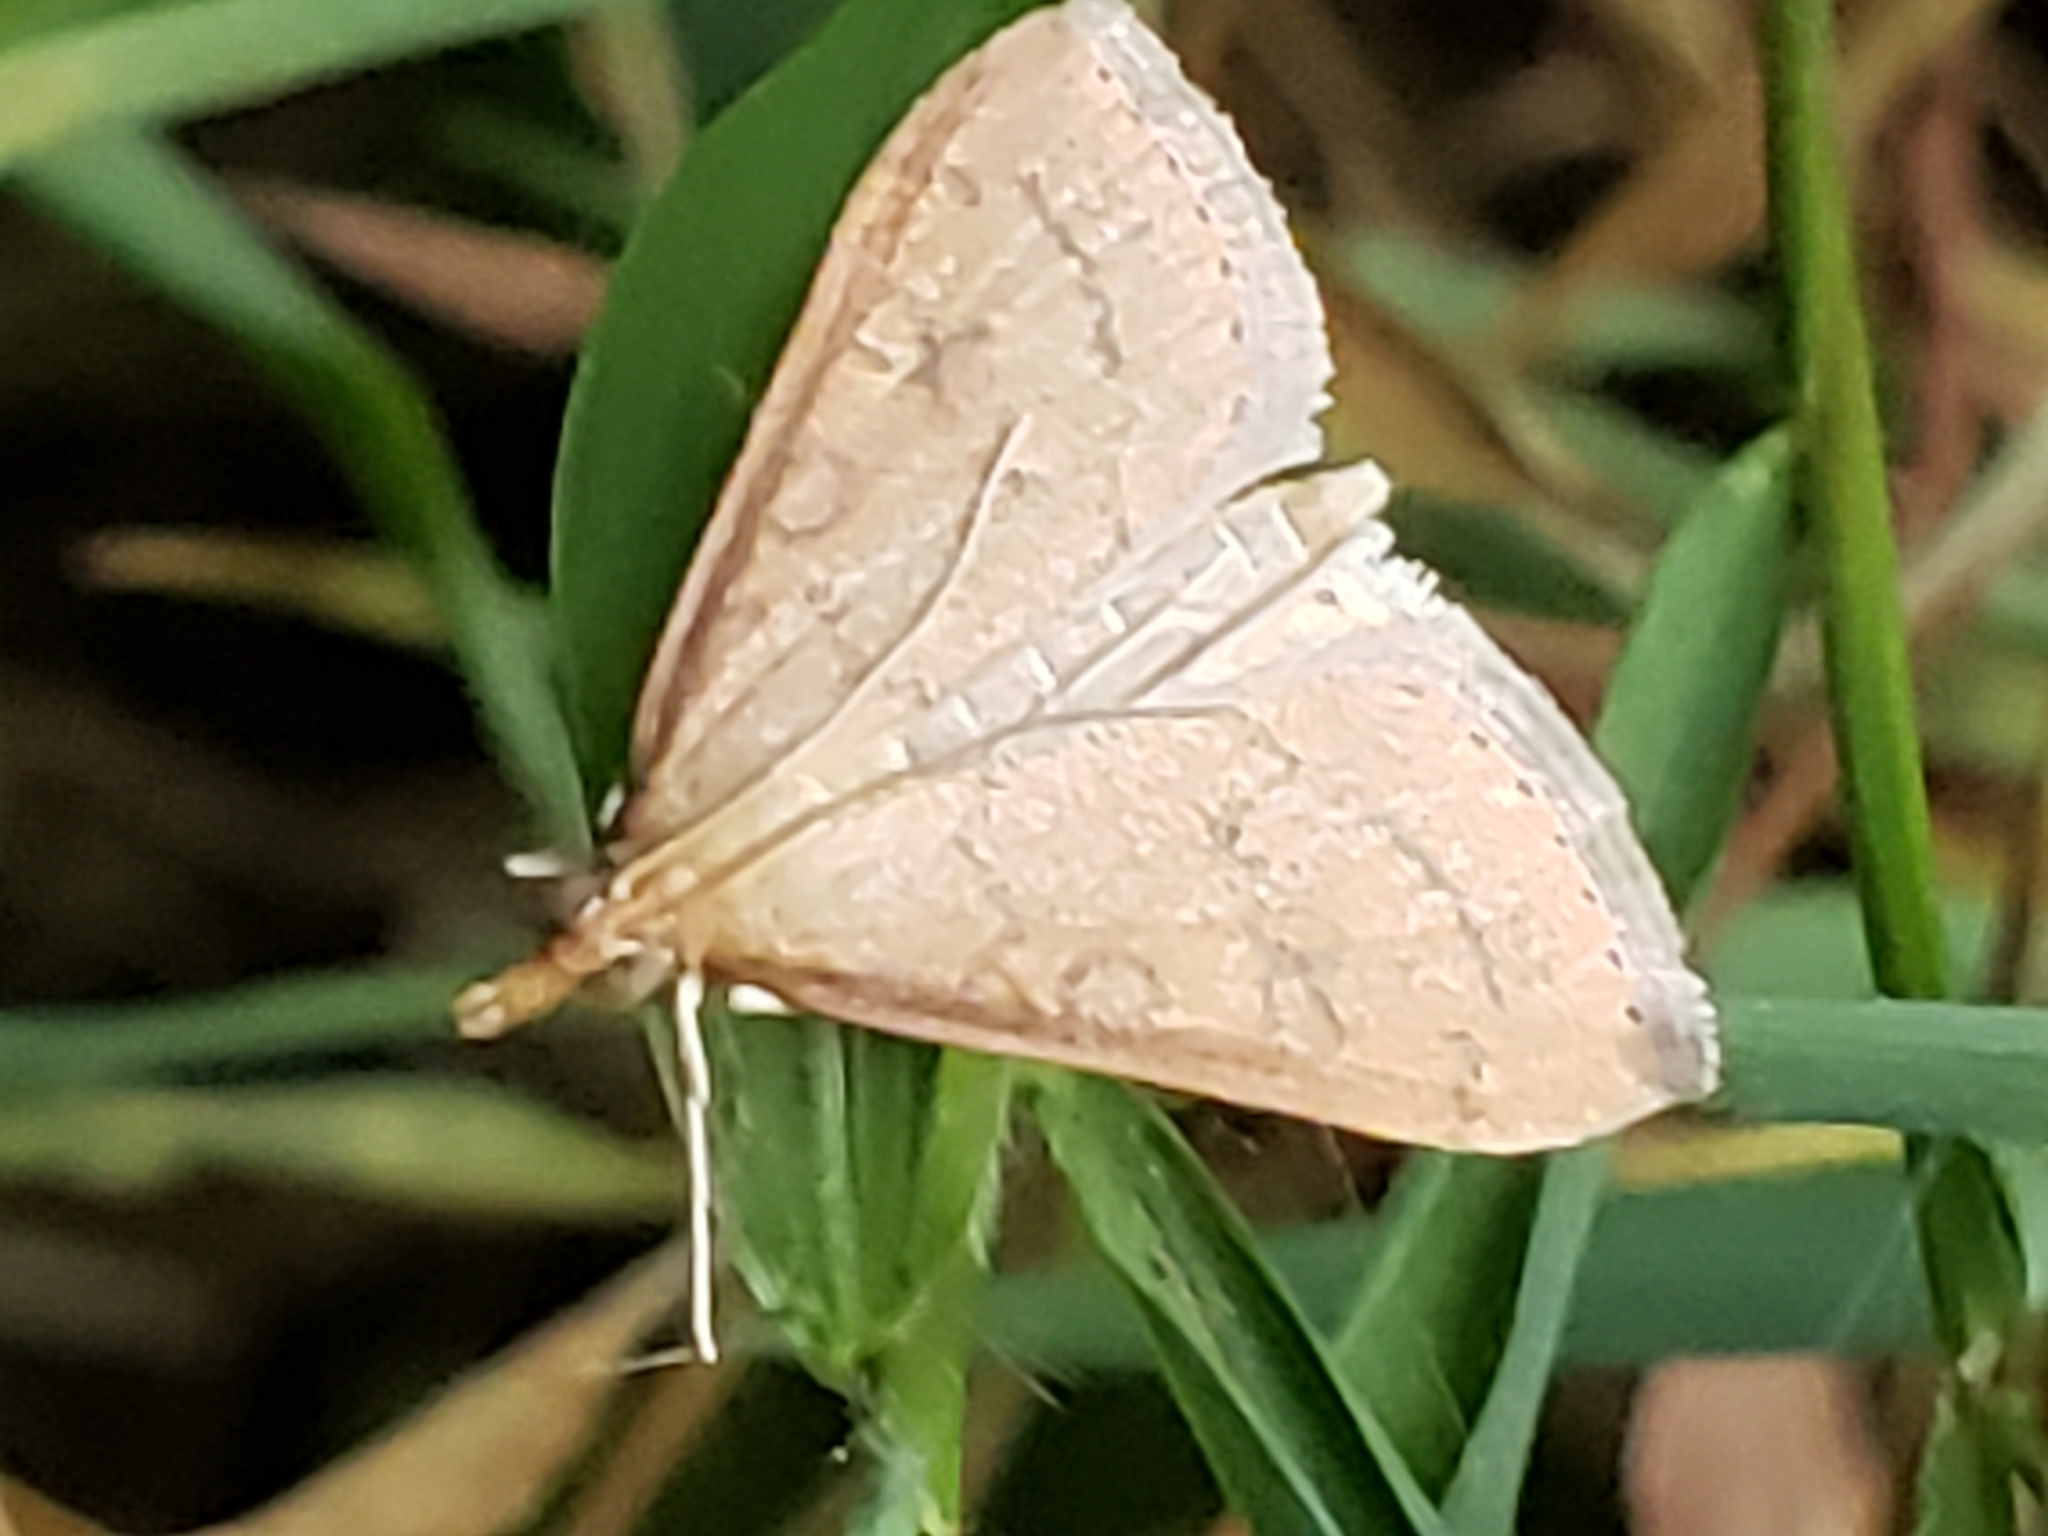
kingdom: Animalia
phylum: Arthropoda
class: Insecta
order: Lepidoptera
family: Crambidae
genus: Udea
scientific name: Udea rubigalis
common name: Celery leaftier moth
